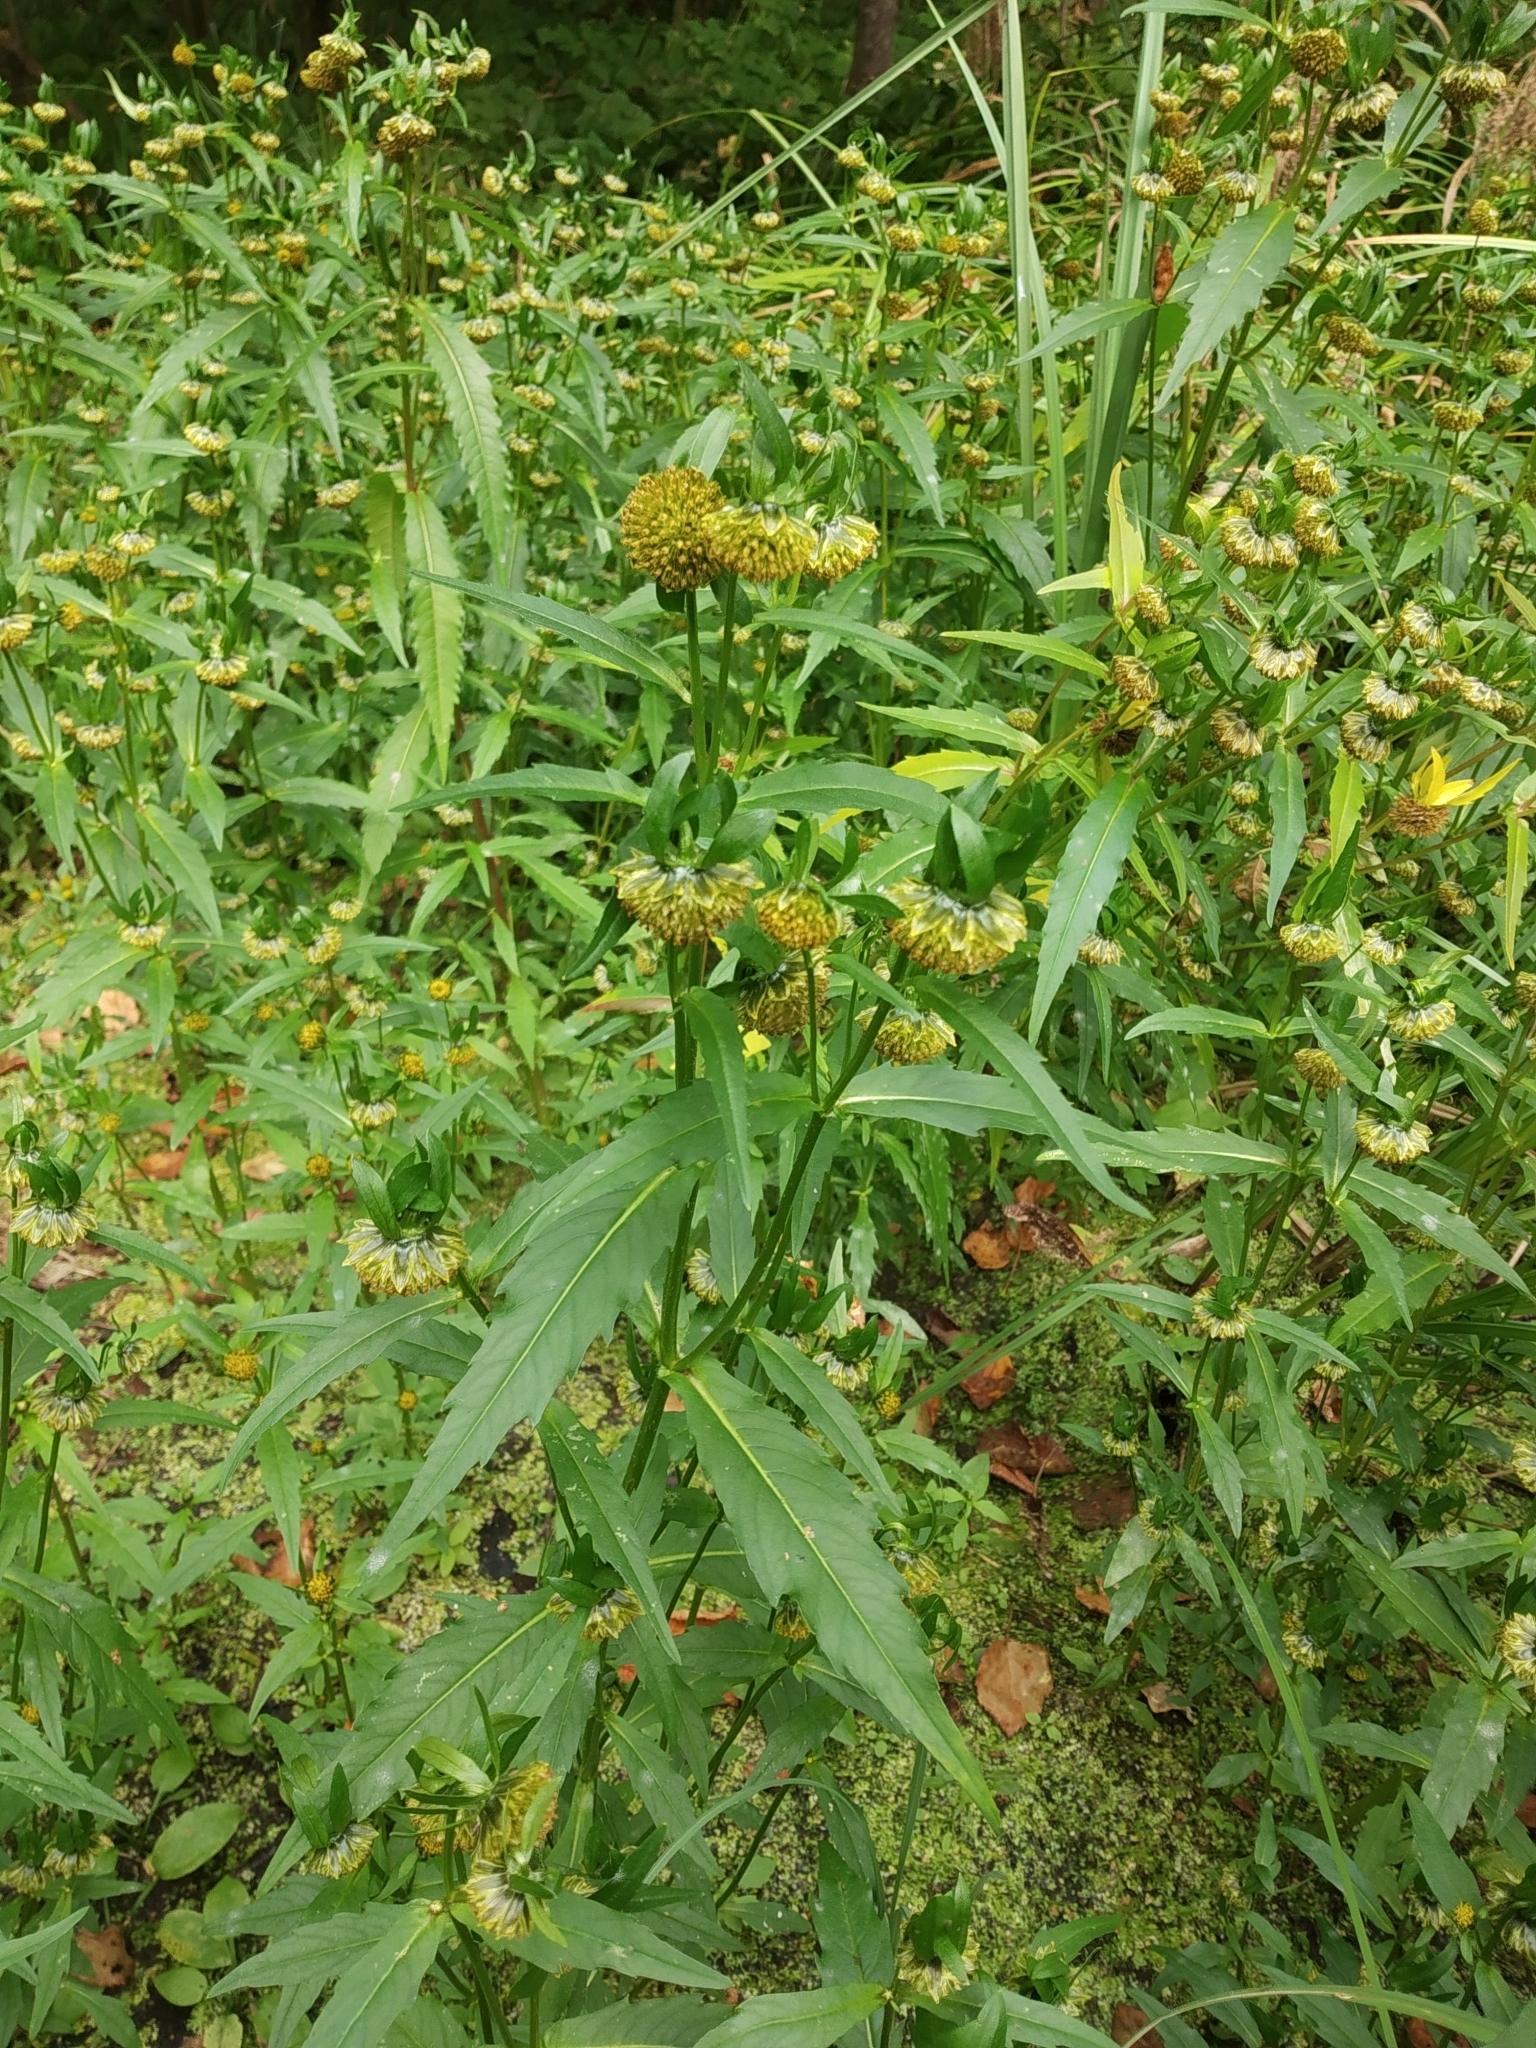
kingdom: Plantae
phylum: Tracheophyta
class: Magnoliopsida
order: Asterales
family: Asteraceae
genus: Bidens
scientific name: Bidens cernua
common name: Nodding bur-marigold
